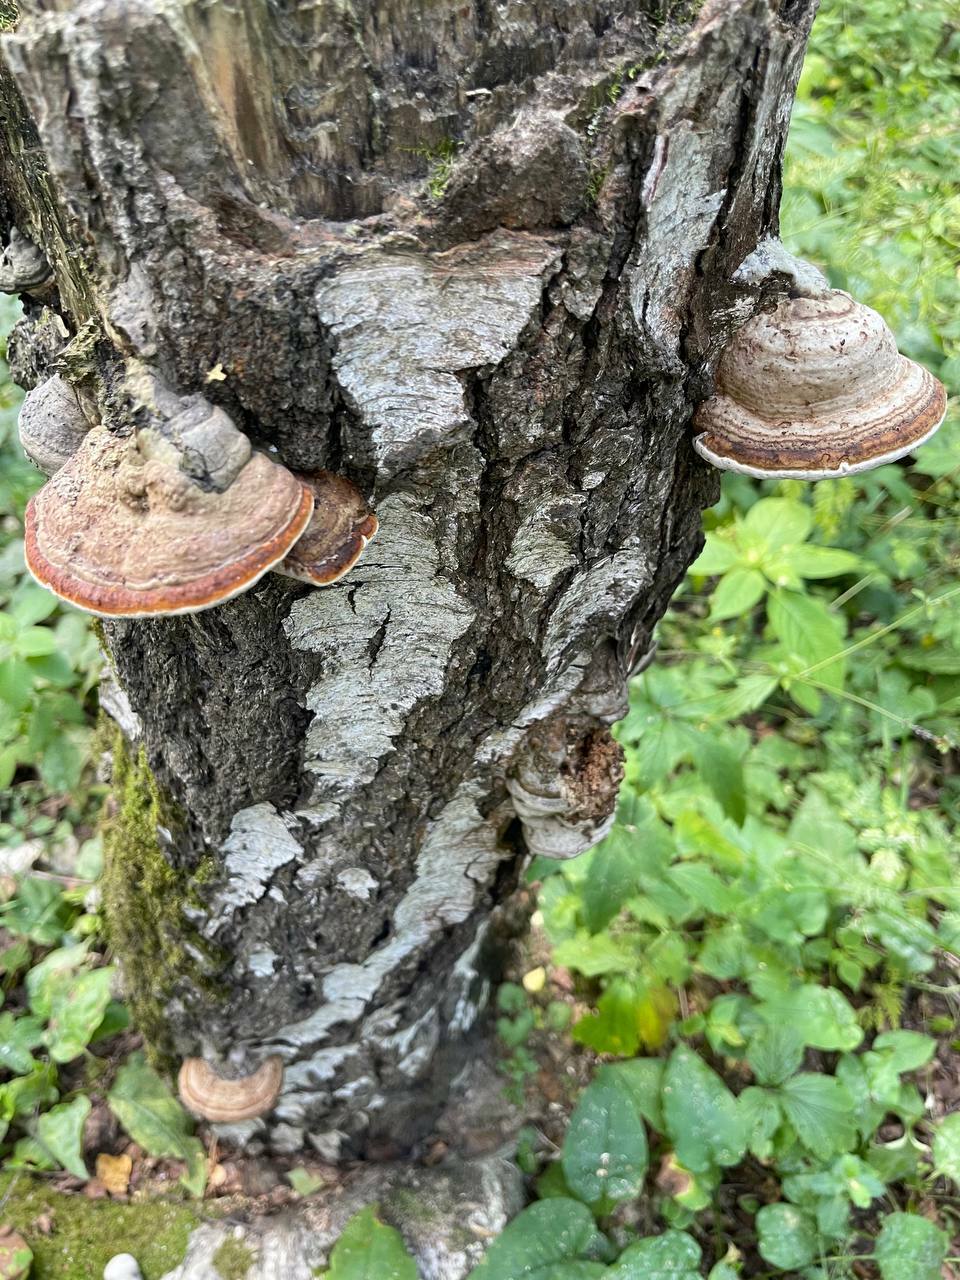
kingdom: Fungi
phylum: Basidiomycota
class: Agaricomycetes
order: Polyporales
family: Fomitopsidaceae
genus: Fomitopsis
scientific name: Fomitopsis pinicola
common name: Red-belted bracket
